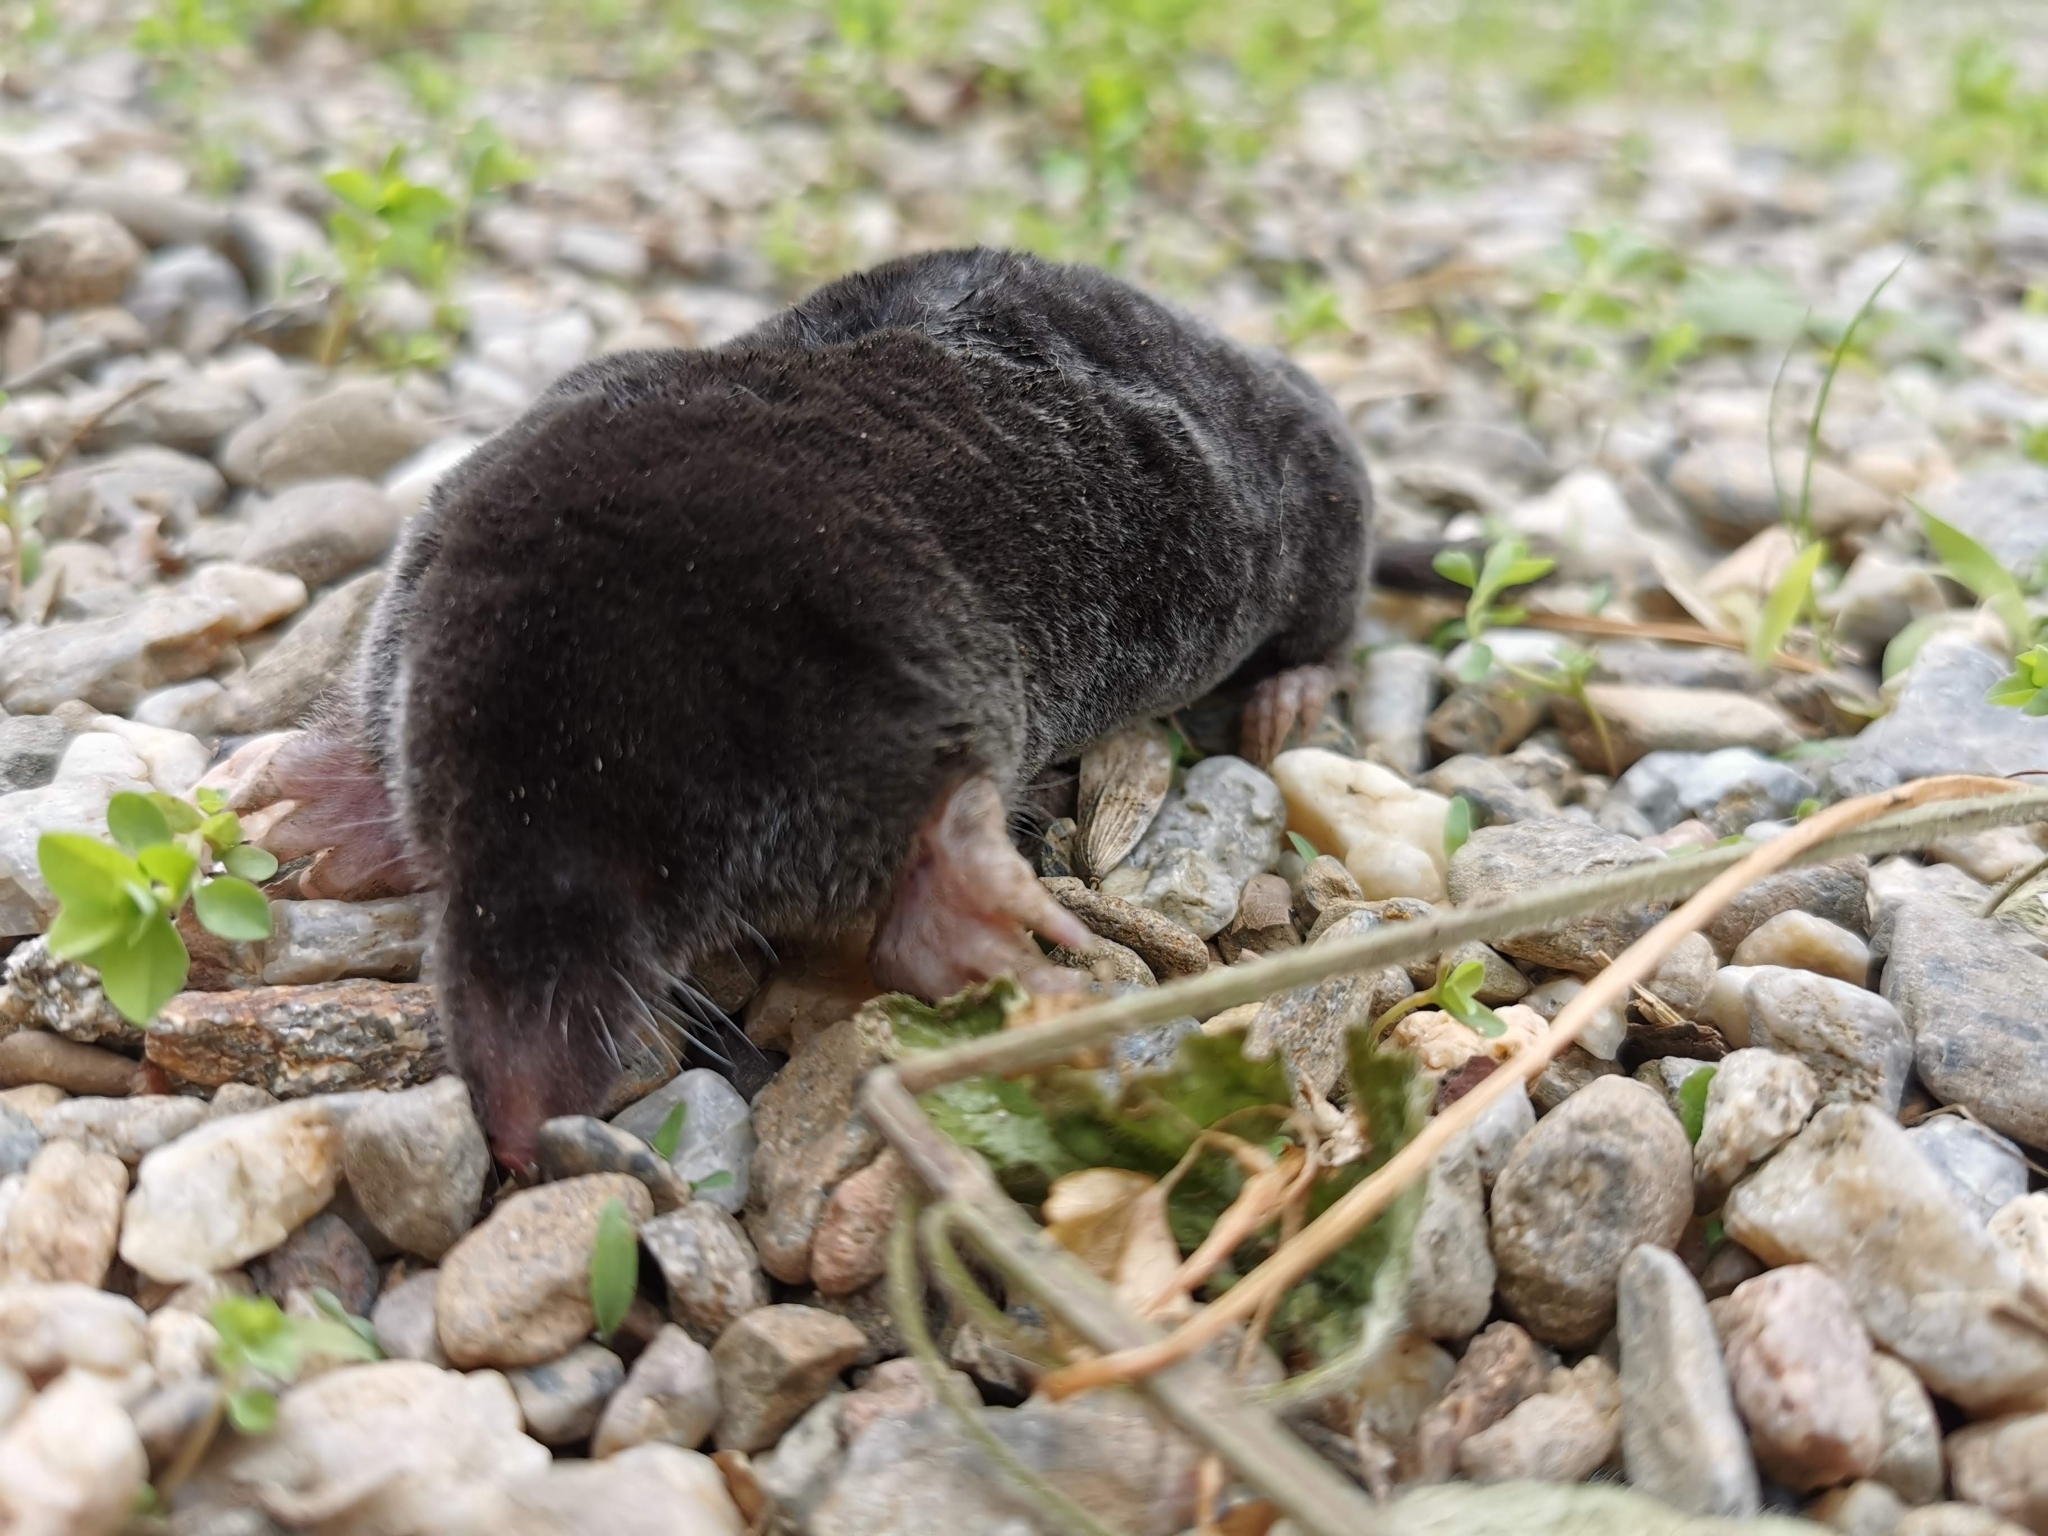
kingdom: Animalia
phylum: Chordata
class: Mammalia
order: Soricomorpha
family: Talpidae
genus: Talpa
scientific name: Talpa europaea
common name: European mole
